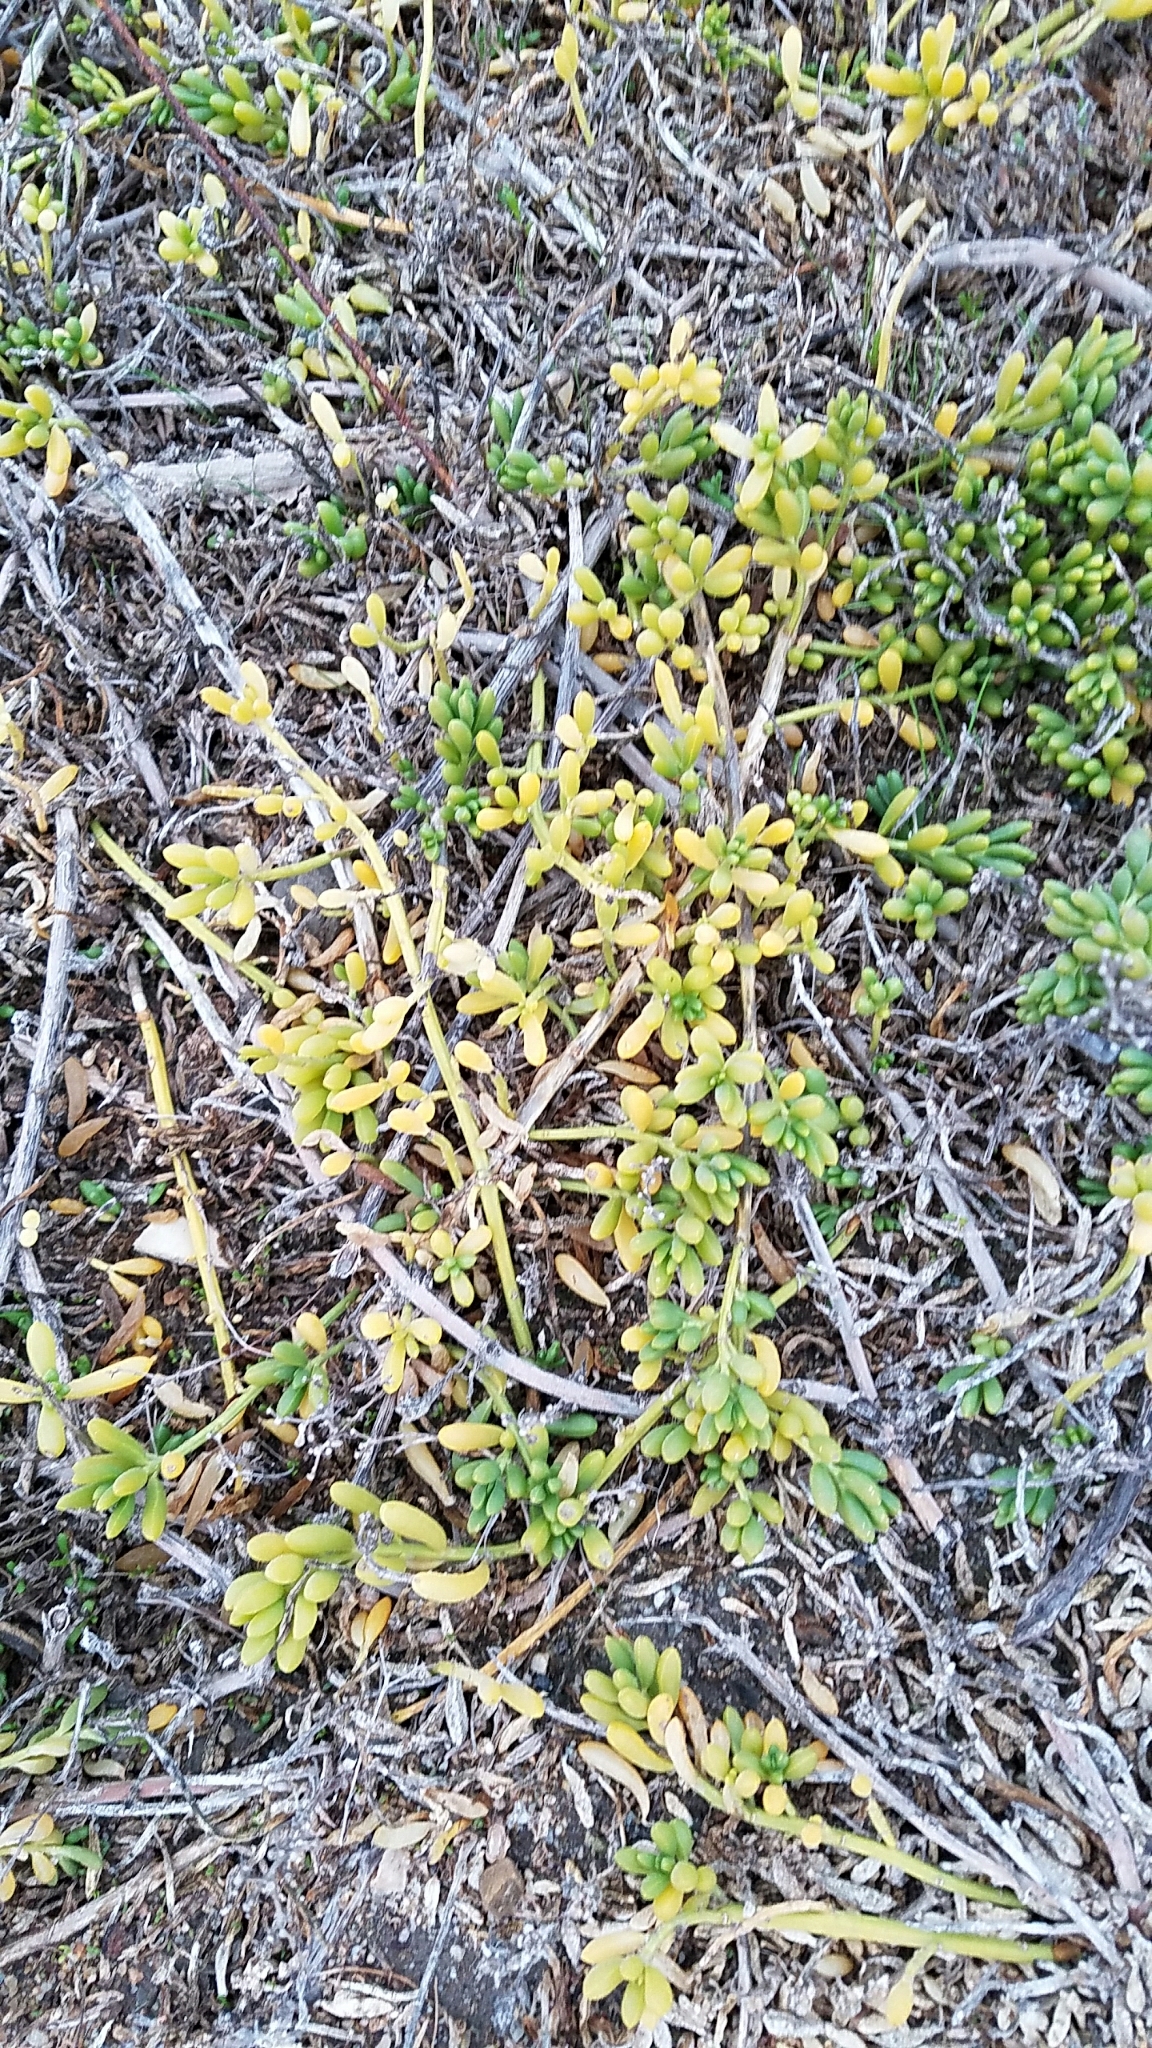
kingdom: Plantae
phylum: Tracheophyta
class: Magnoliopsida
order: Brassicales
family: Bataceae
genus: Batis
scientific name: Batis maritima
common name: Turtleweed
